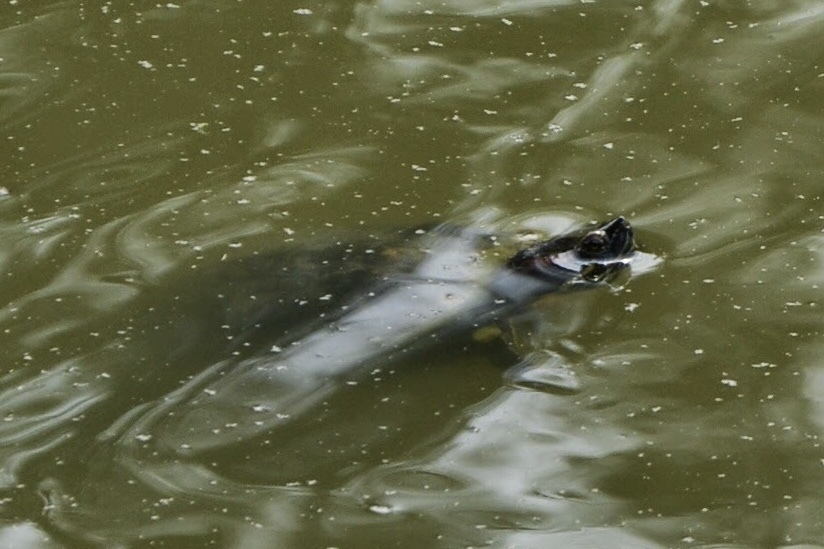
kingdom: Animalia
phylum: Chordata
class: Testudines
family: Emydidae
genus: Trachemys
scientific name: Trachemys scripta
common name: Slider
